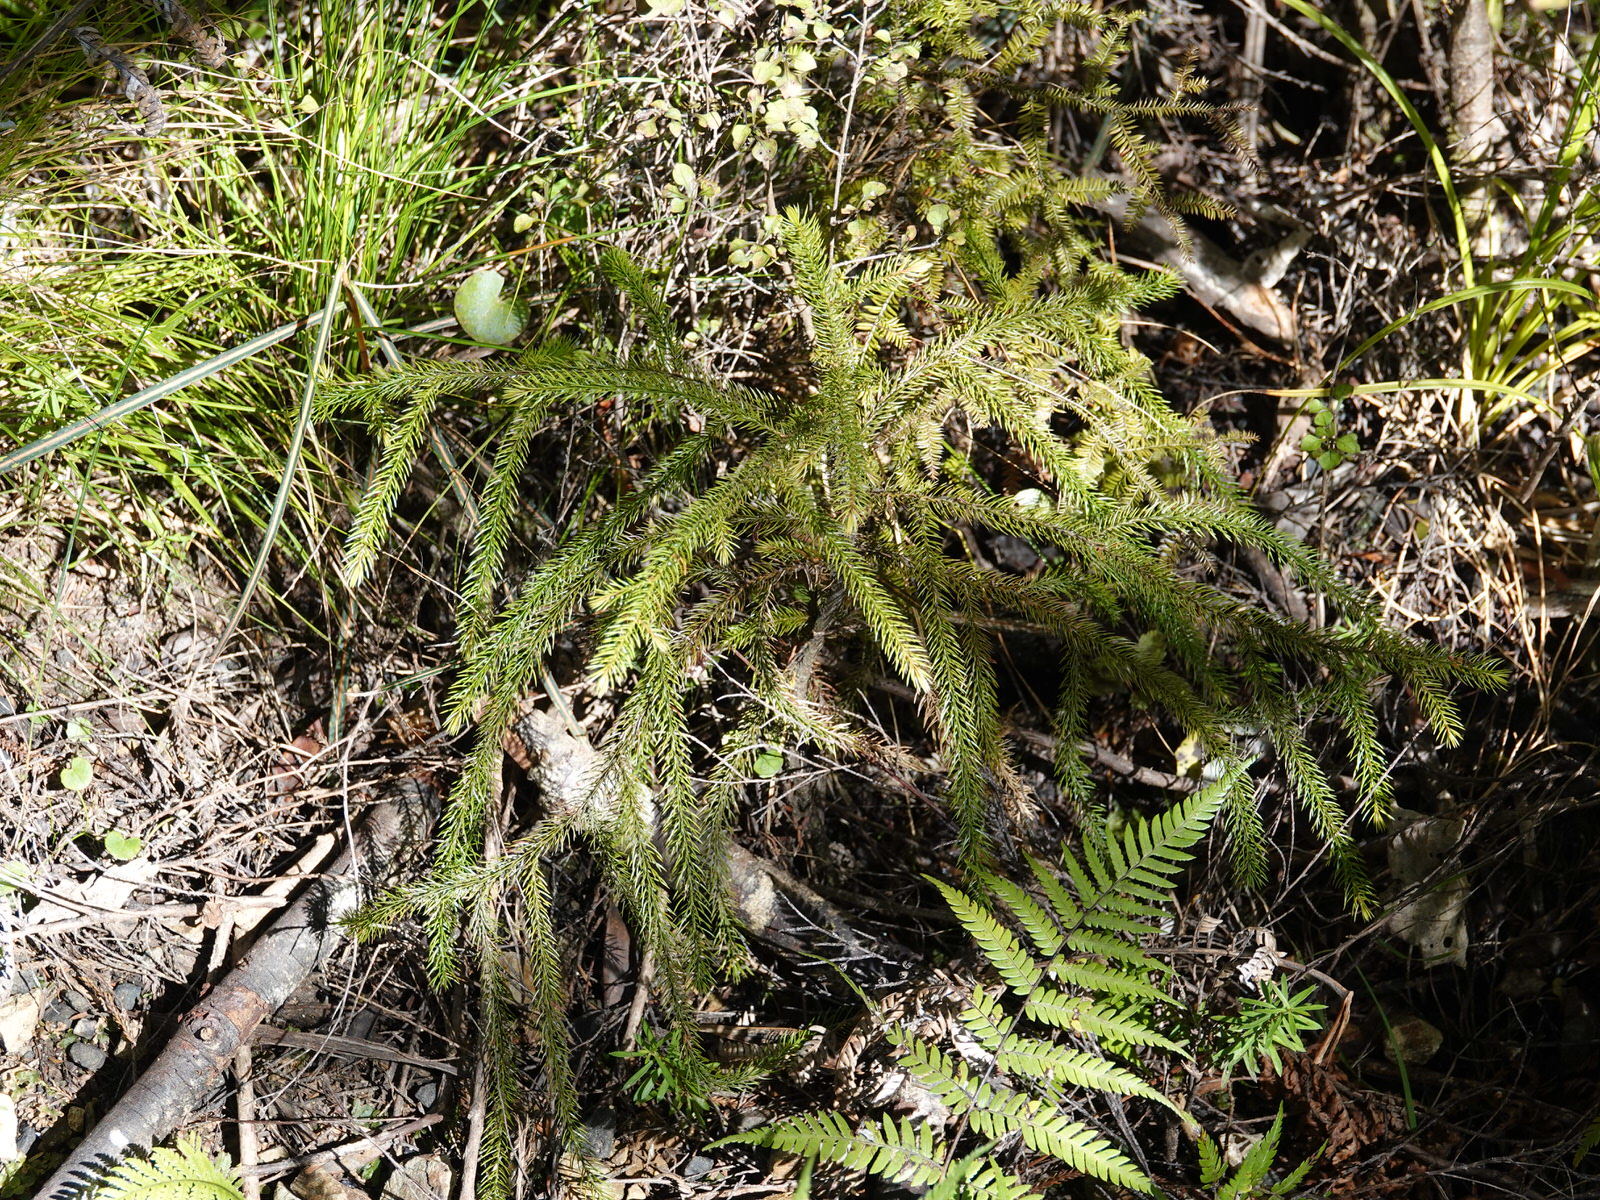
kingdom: Plantae
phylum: Tracheophyta
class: Pinopsida
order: Pinales
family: Podocarpaceae
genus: Dacrydium
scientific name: Dacrydium cupressinum
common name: Red pine
